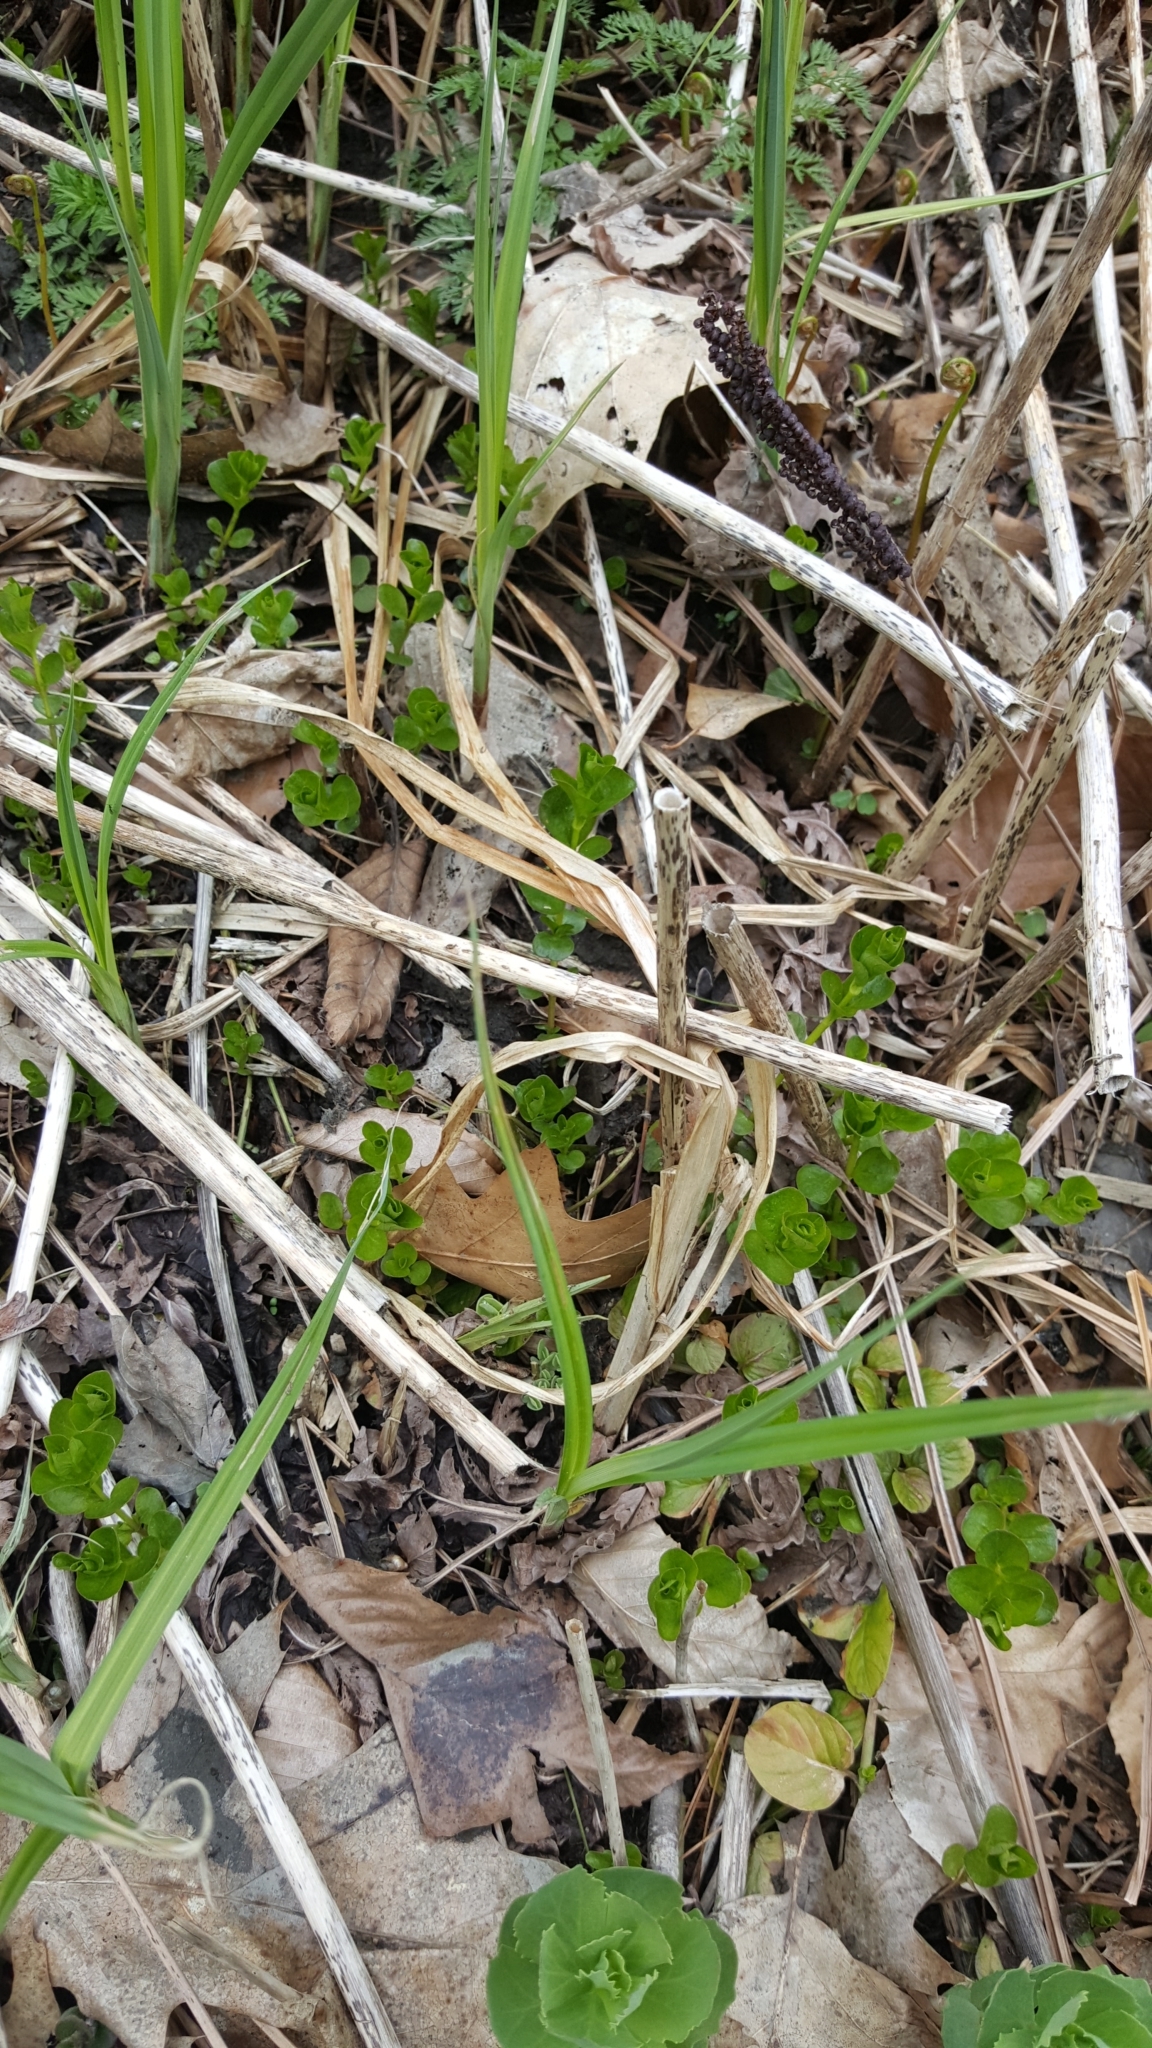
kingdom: Plantae
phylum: Tracheophyta
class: Magnoliopsida
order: Ericales
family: Primulaceae
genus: Lysimachia
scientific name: Lysimachia nummularia
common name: Moneywort
